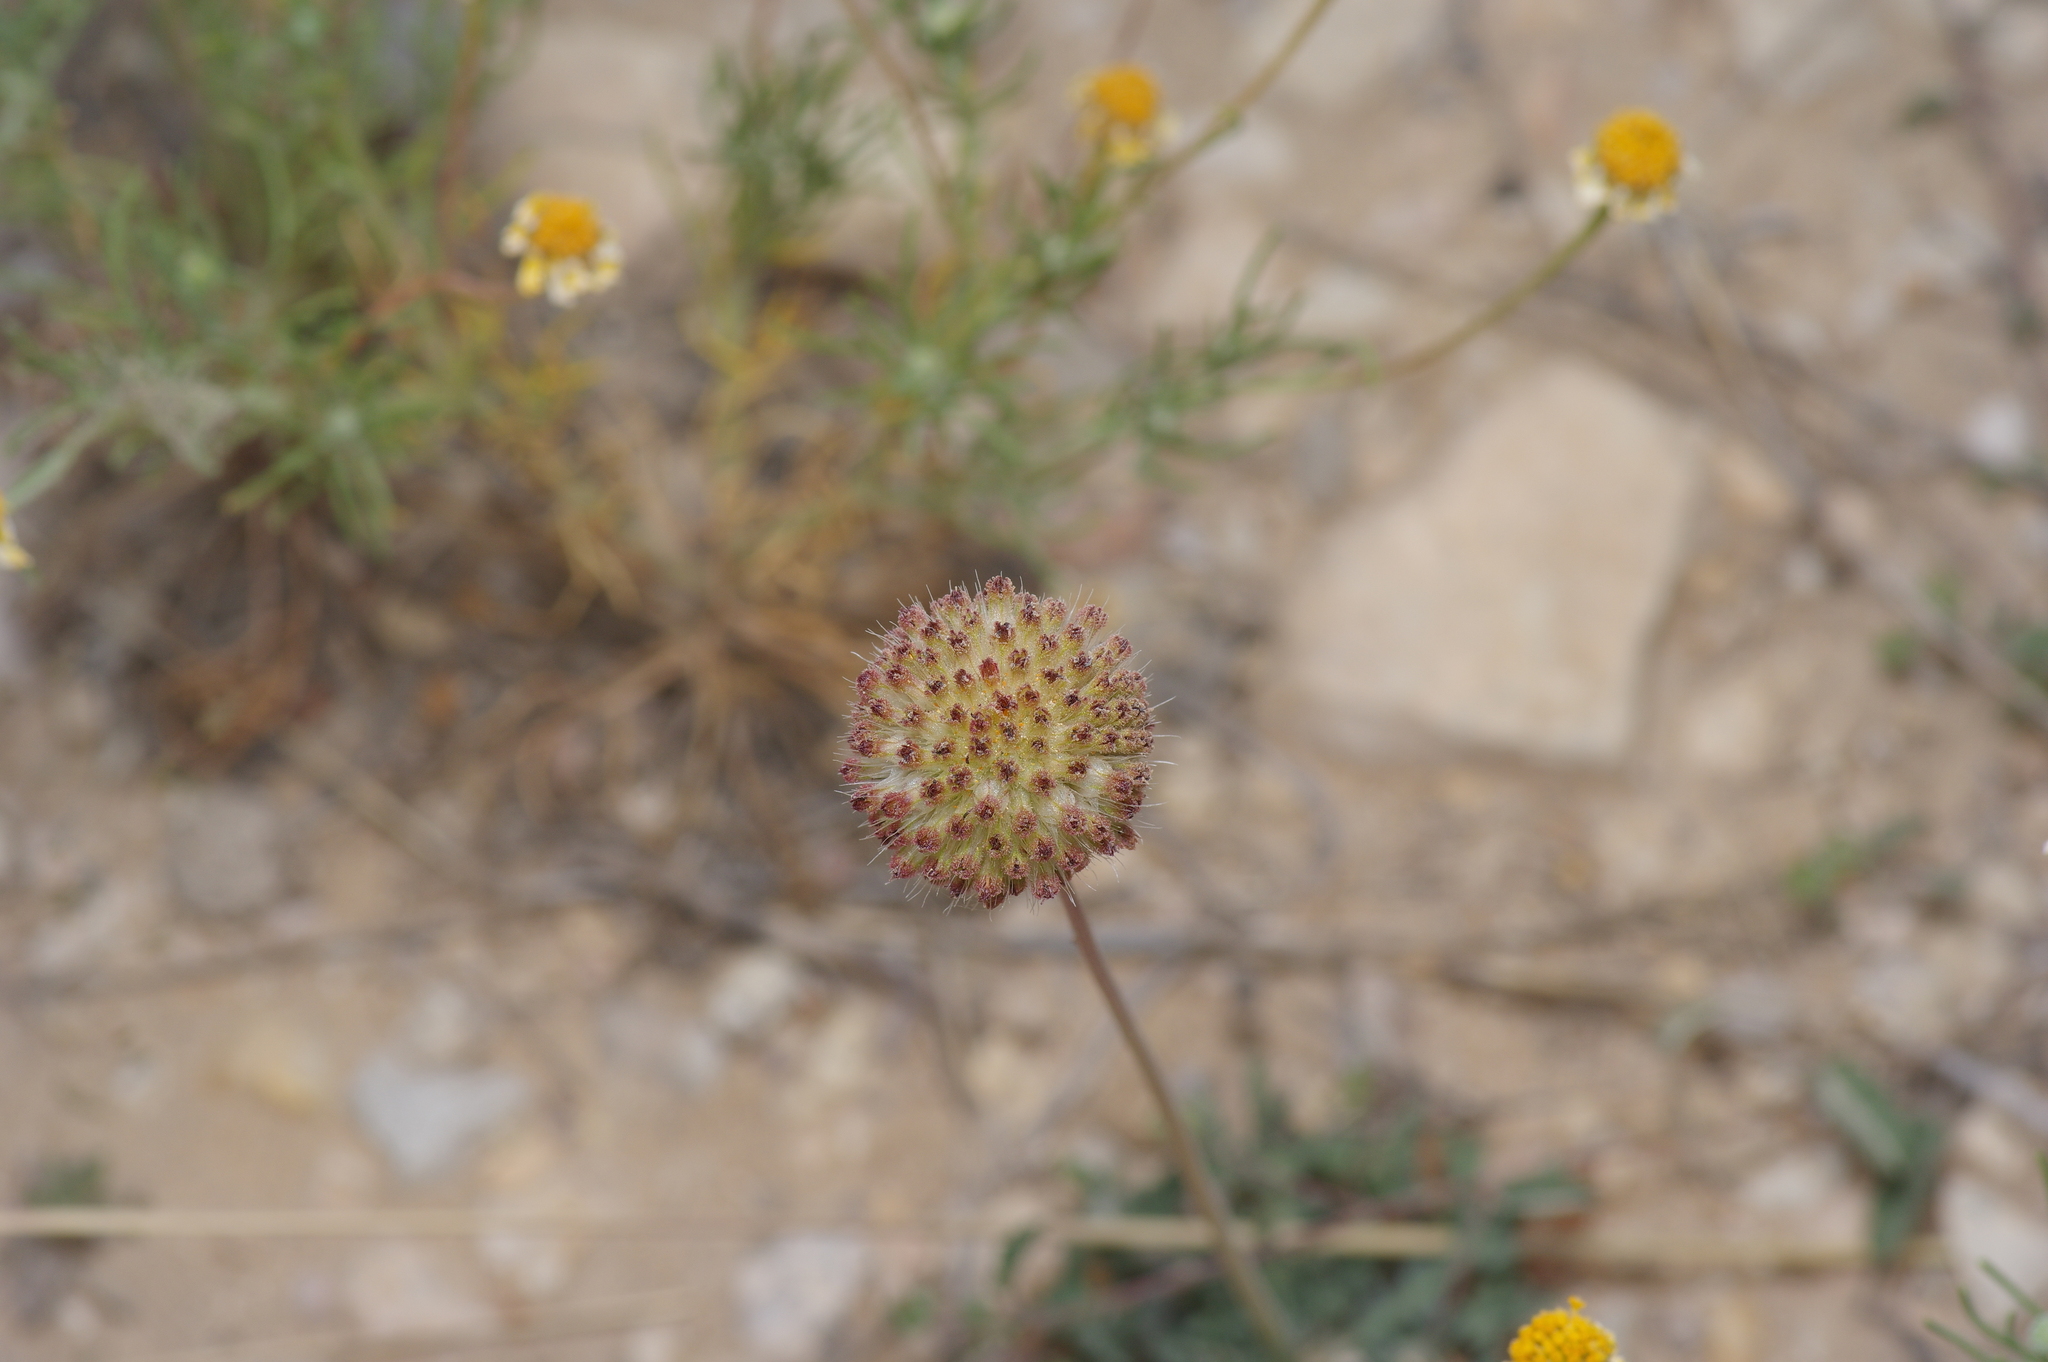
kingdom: Plantae
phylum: Tracheophyta
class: Magnoliopsida
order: Asterales
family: Asteraceae
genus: Gaillardia
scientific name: Gaillardia suavis
